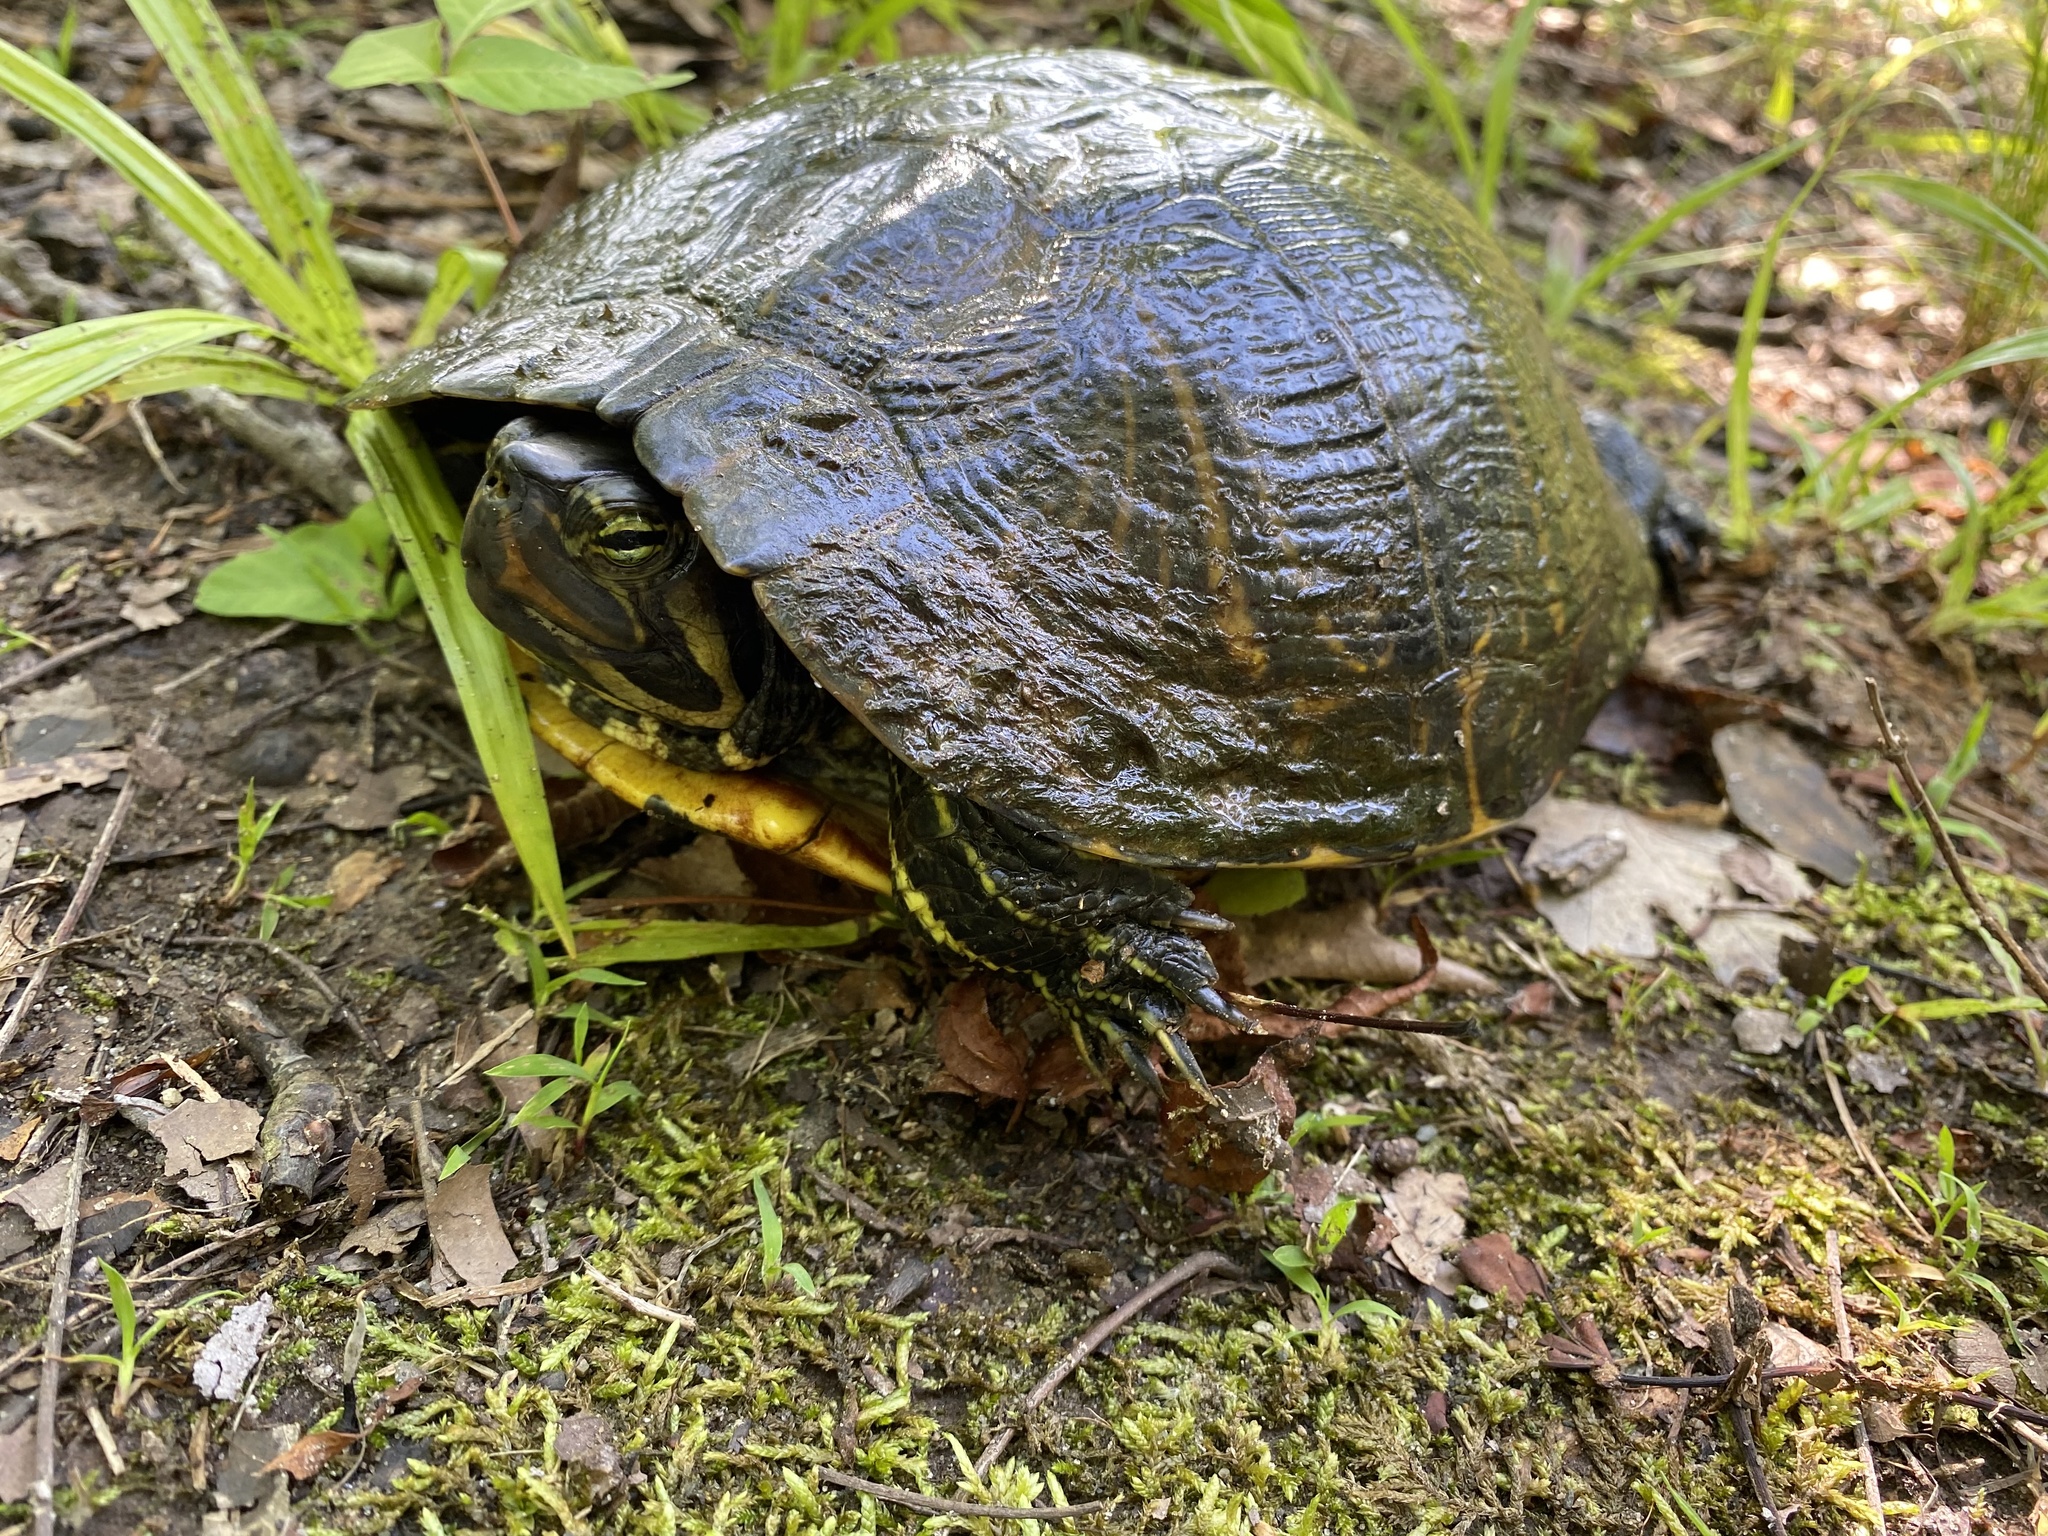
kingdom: Animalia
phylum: Chordata
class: Testudines
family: Emydidae
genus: Trachemys
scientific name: Trachemys scripta
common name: Slider
